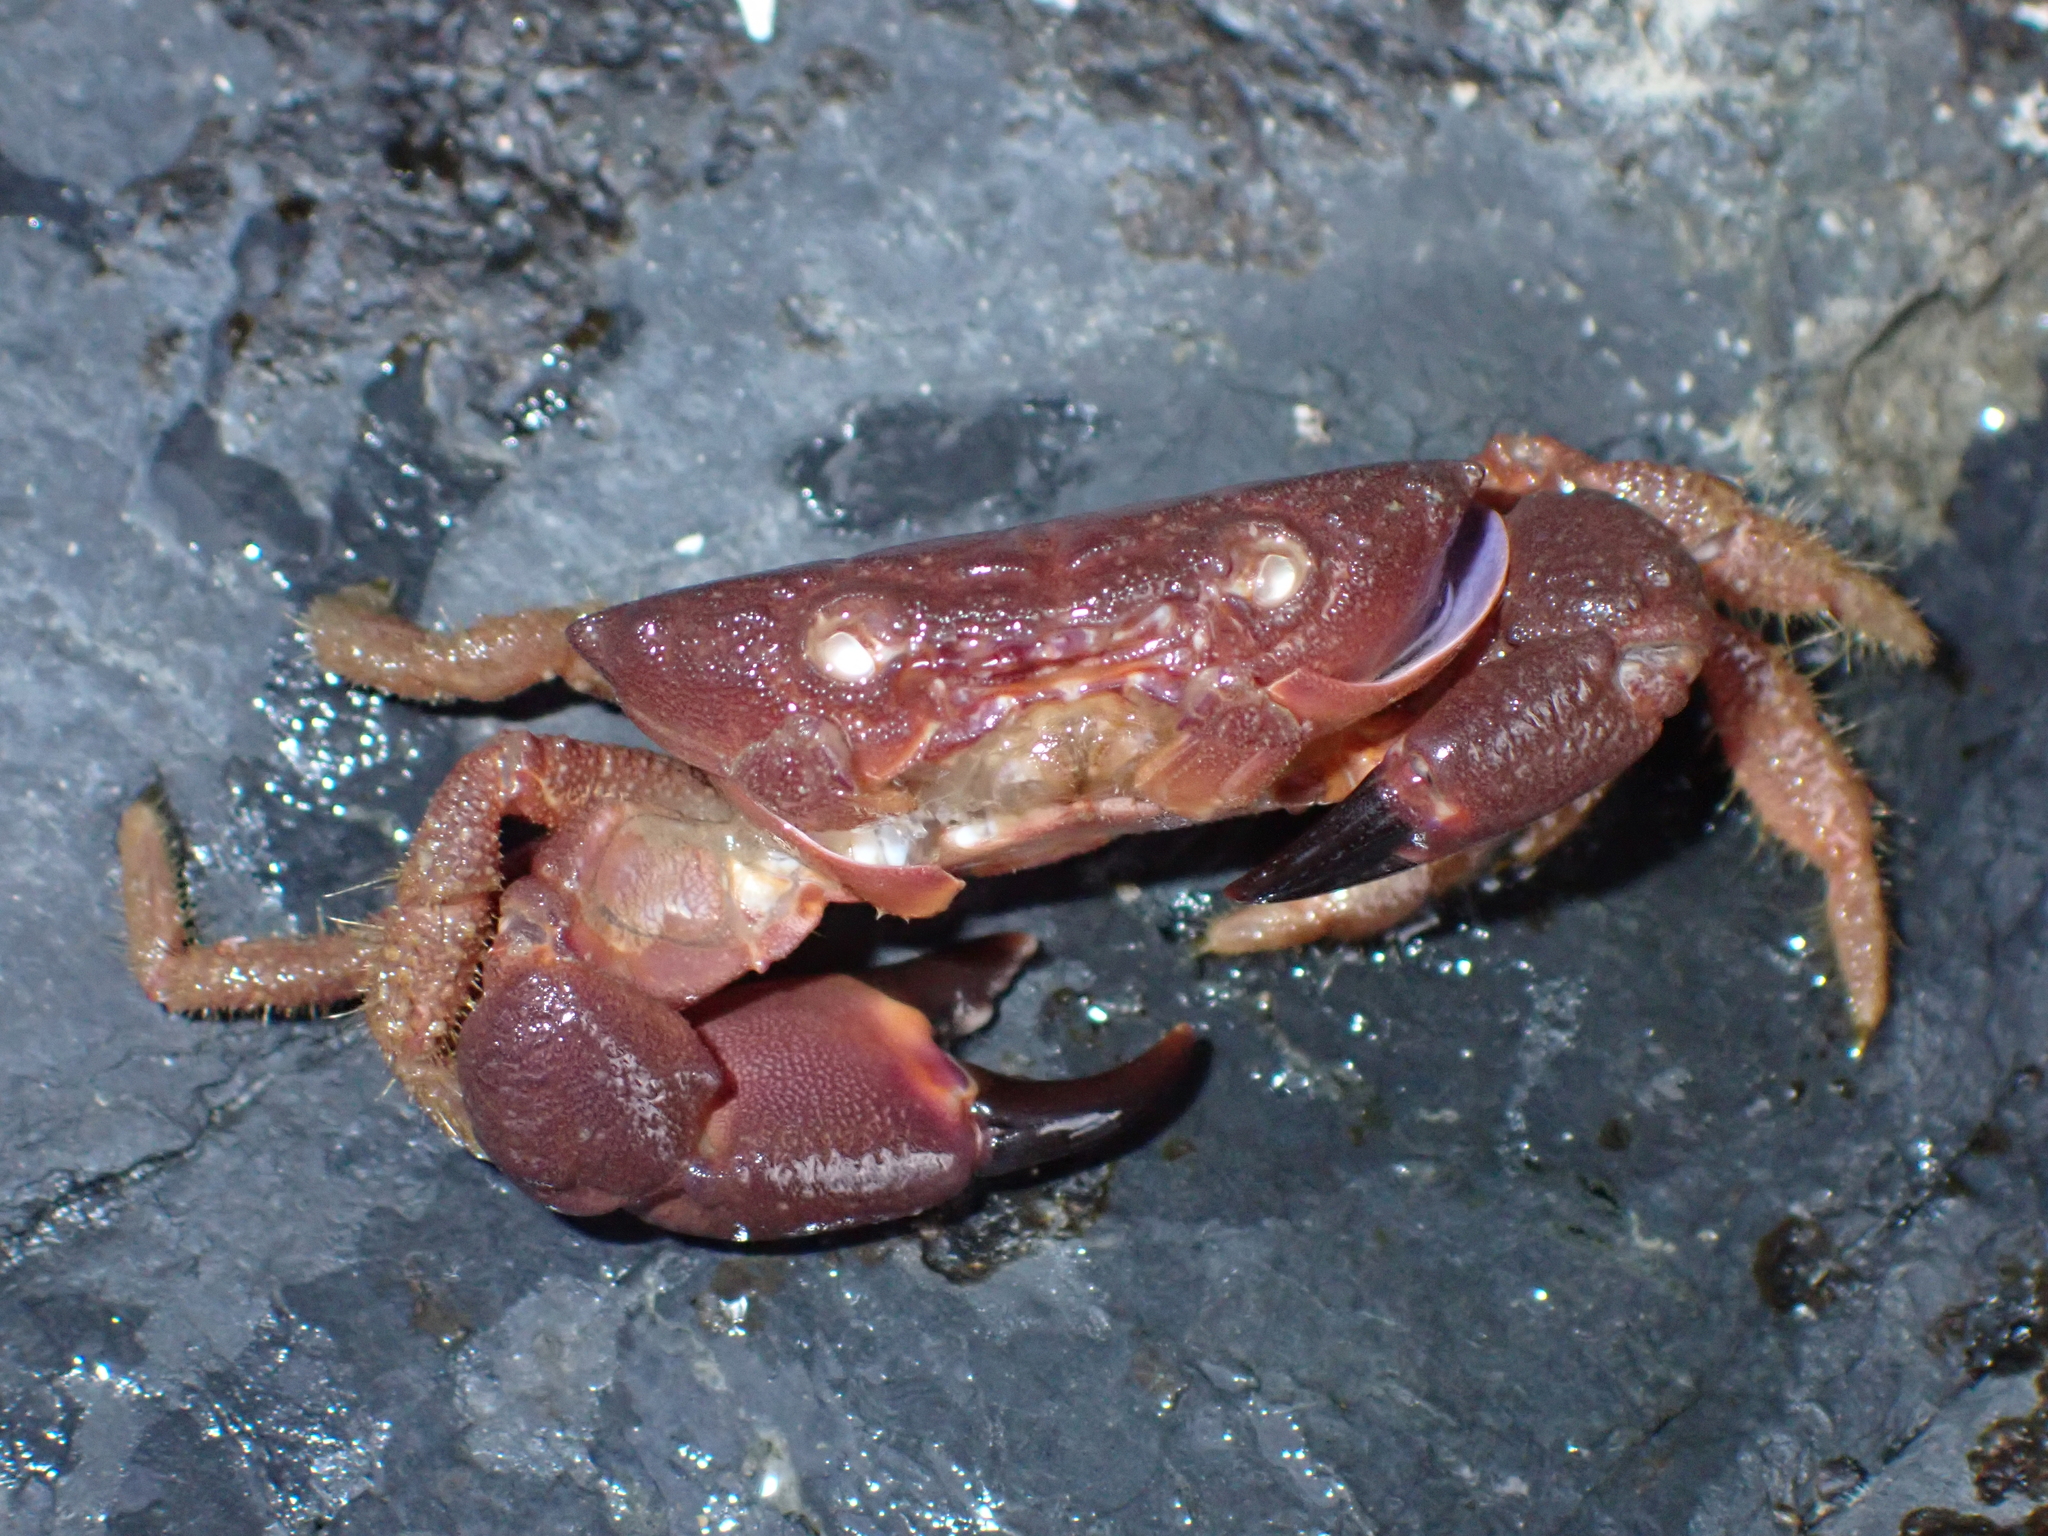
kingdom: Animalia
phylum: Arthropoda
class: Malacostraca
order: Decapoda
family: Oziidae
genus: Ozius
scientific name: Ozius deplanatus
